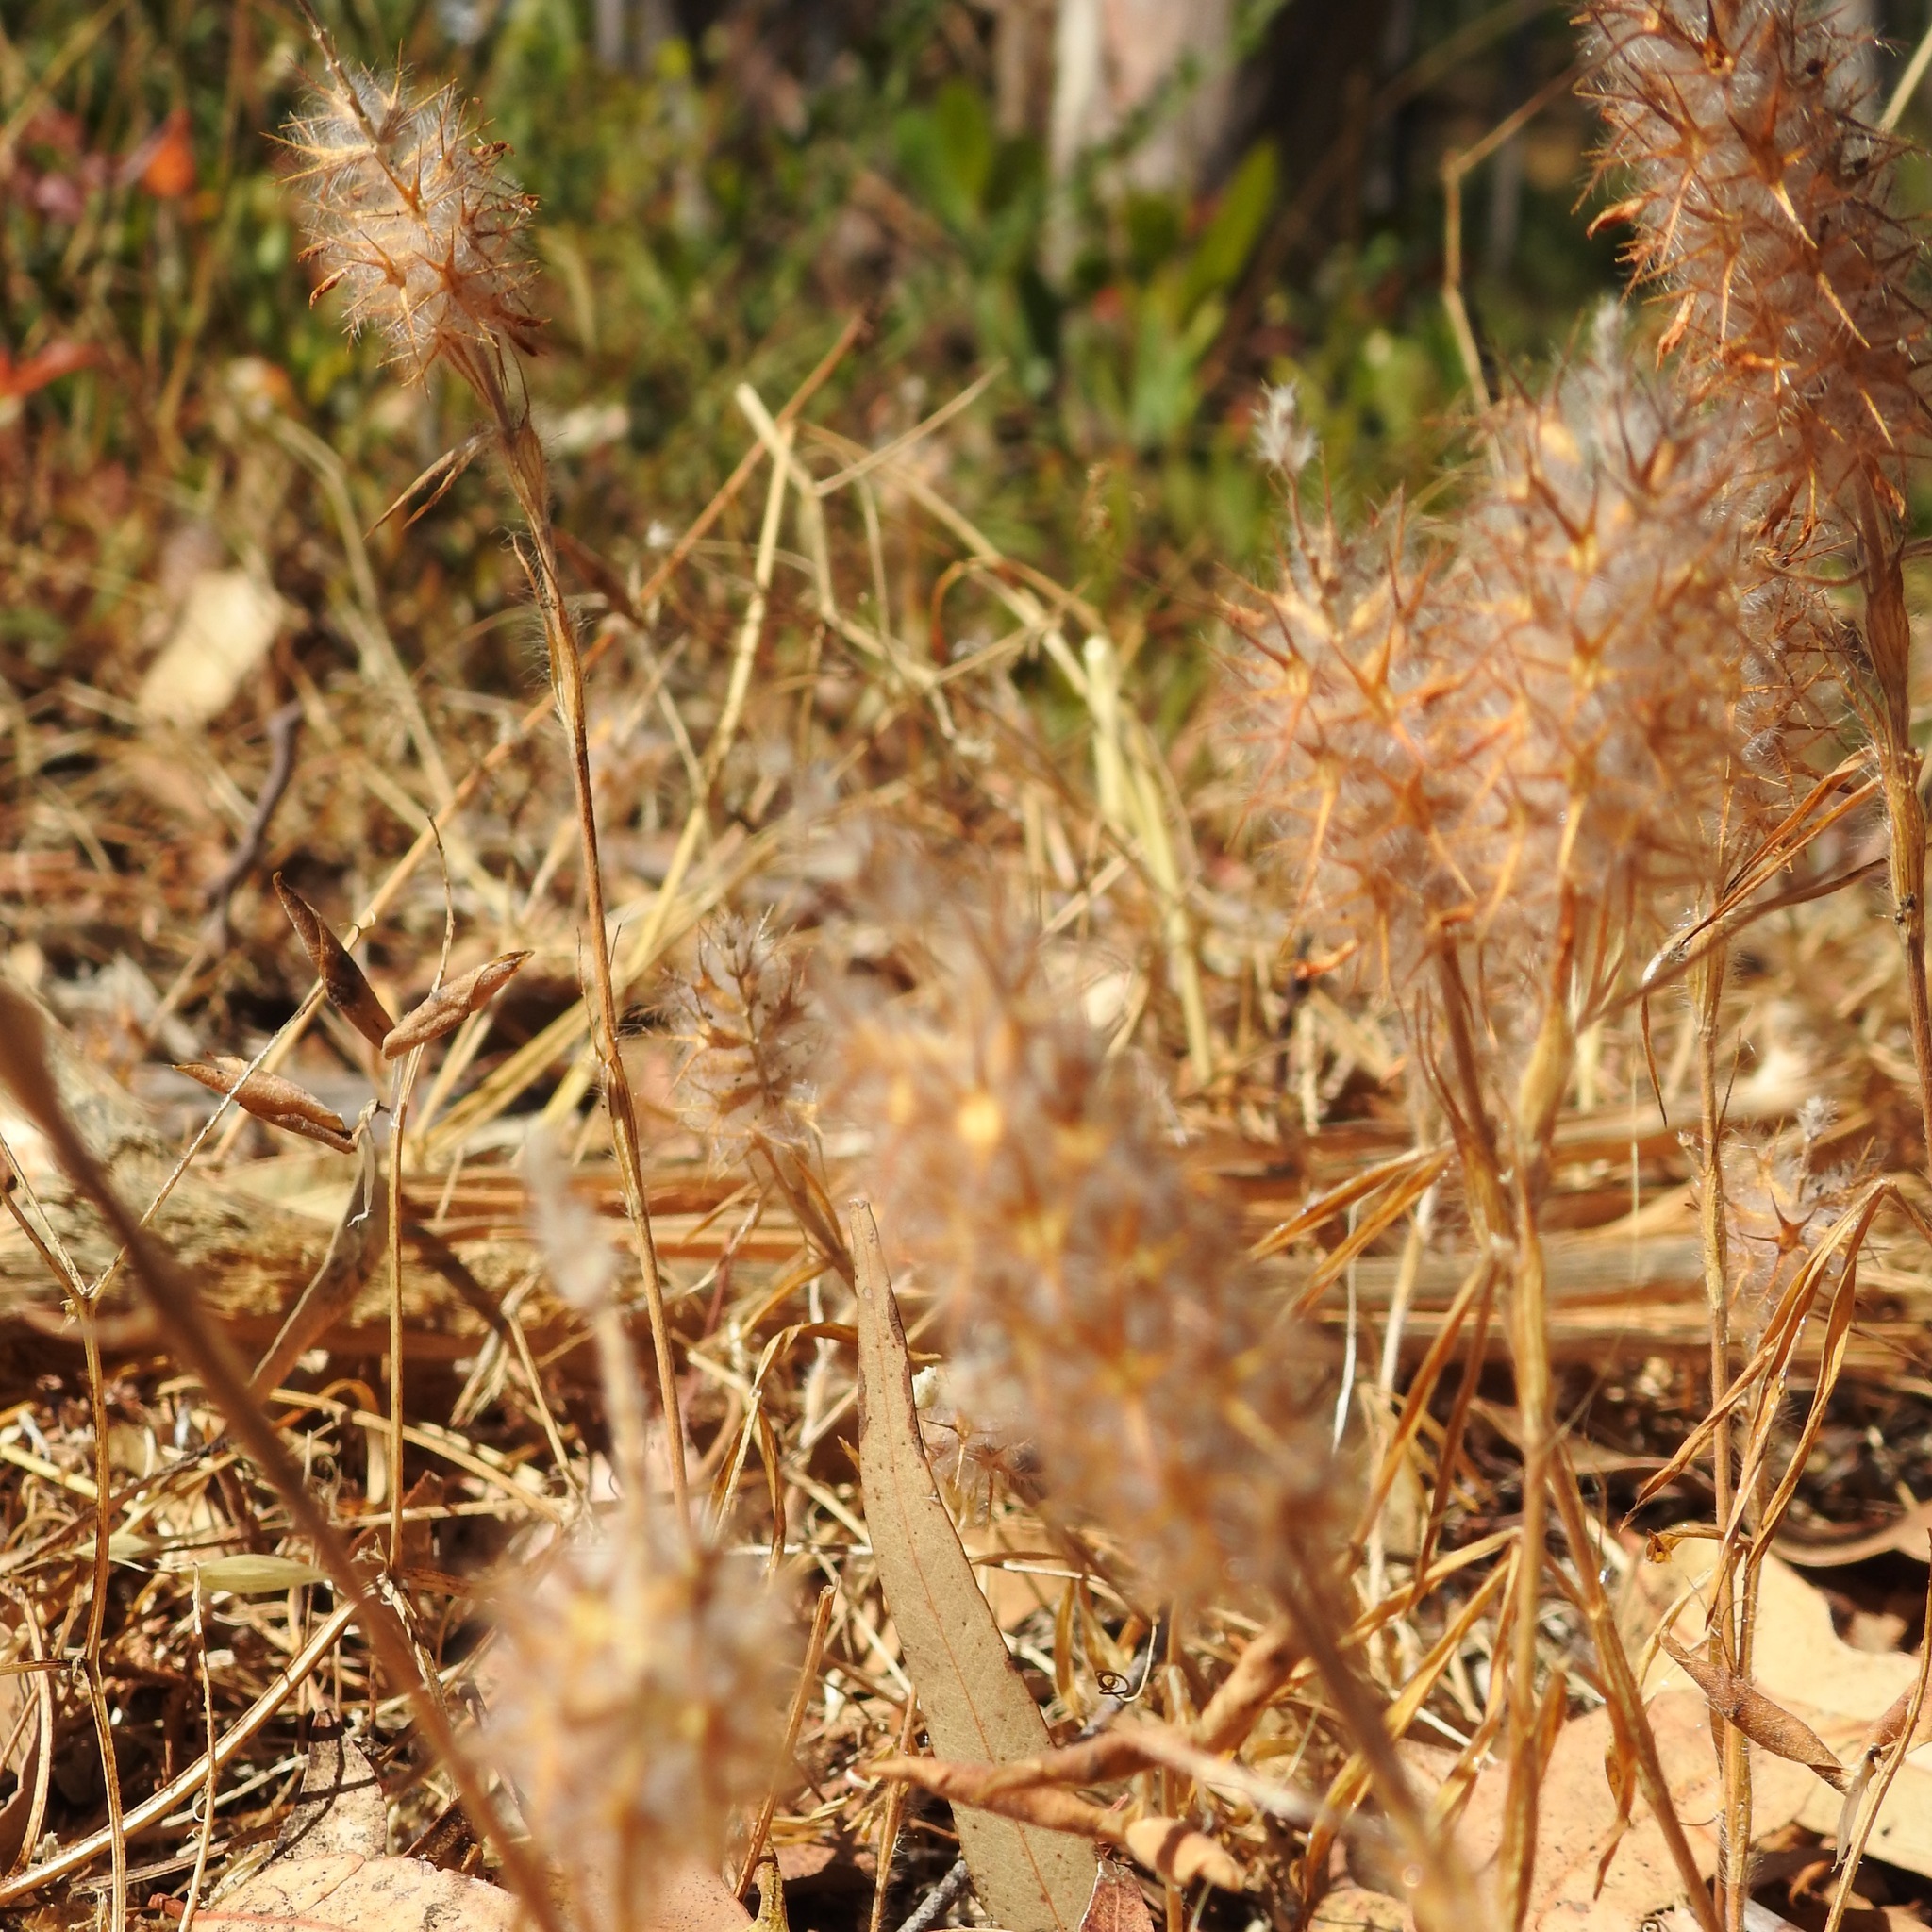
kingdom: Plantae
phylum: Tracheophyta
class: Magnoliopsida
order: Fabales
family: Fabaceae
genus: Trifolium
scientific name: Trifolium angustifolium
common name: Narrow clover
